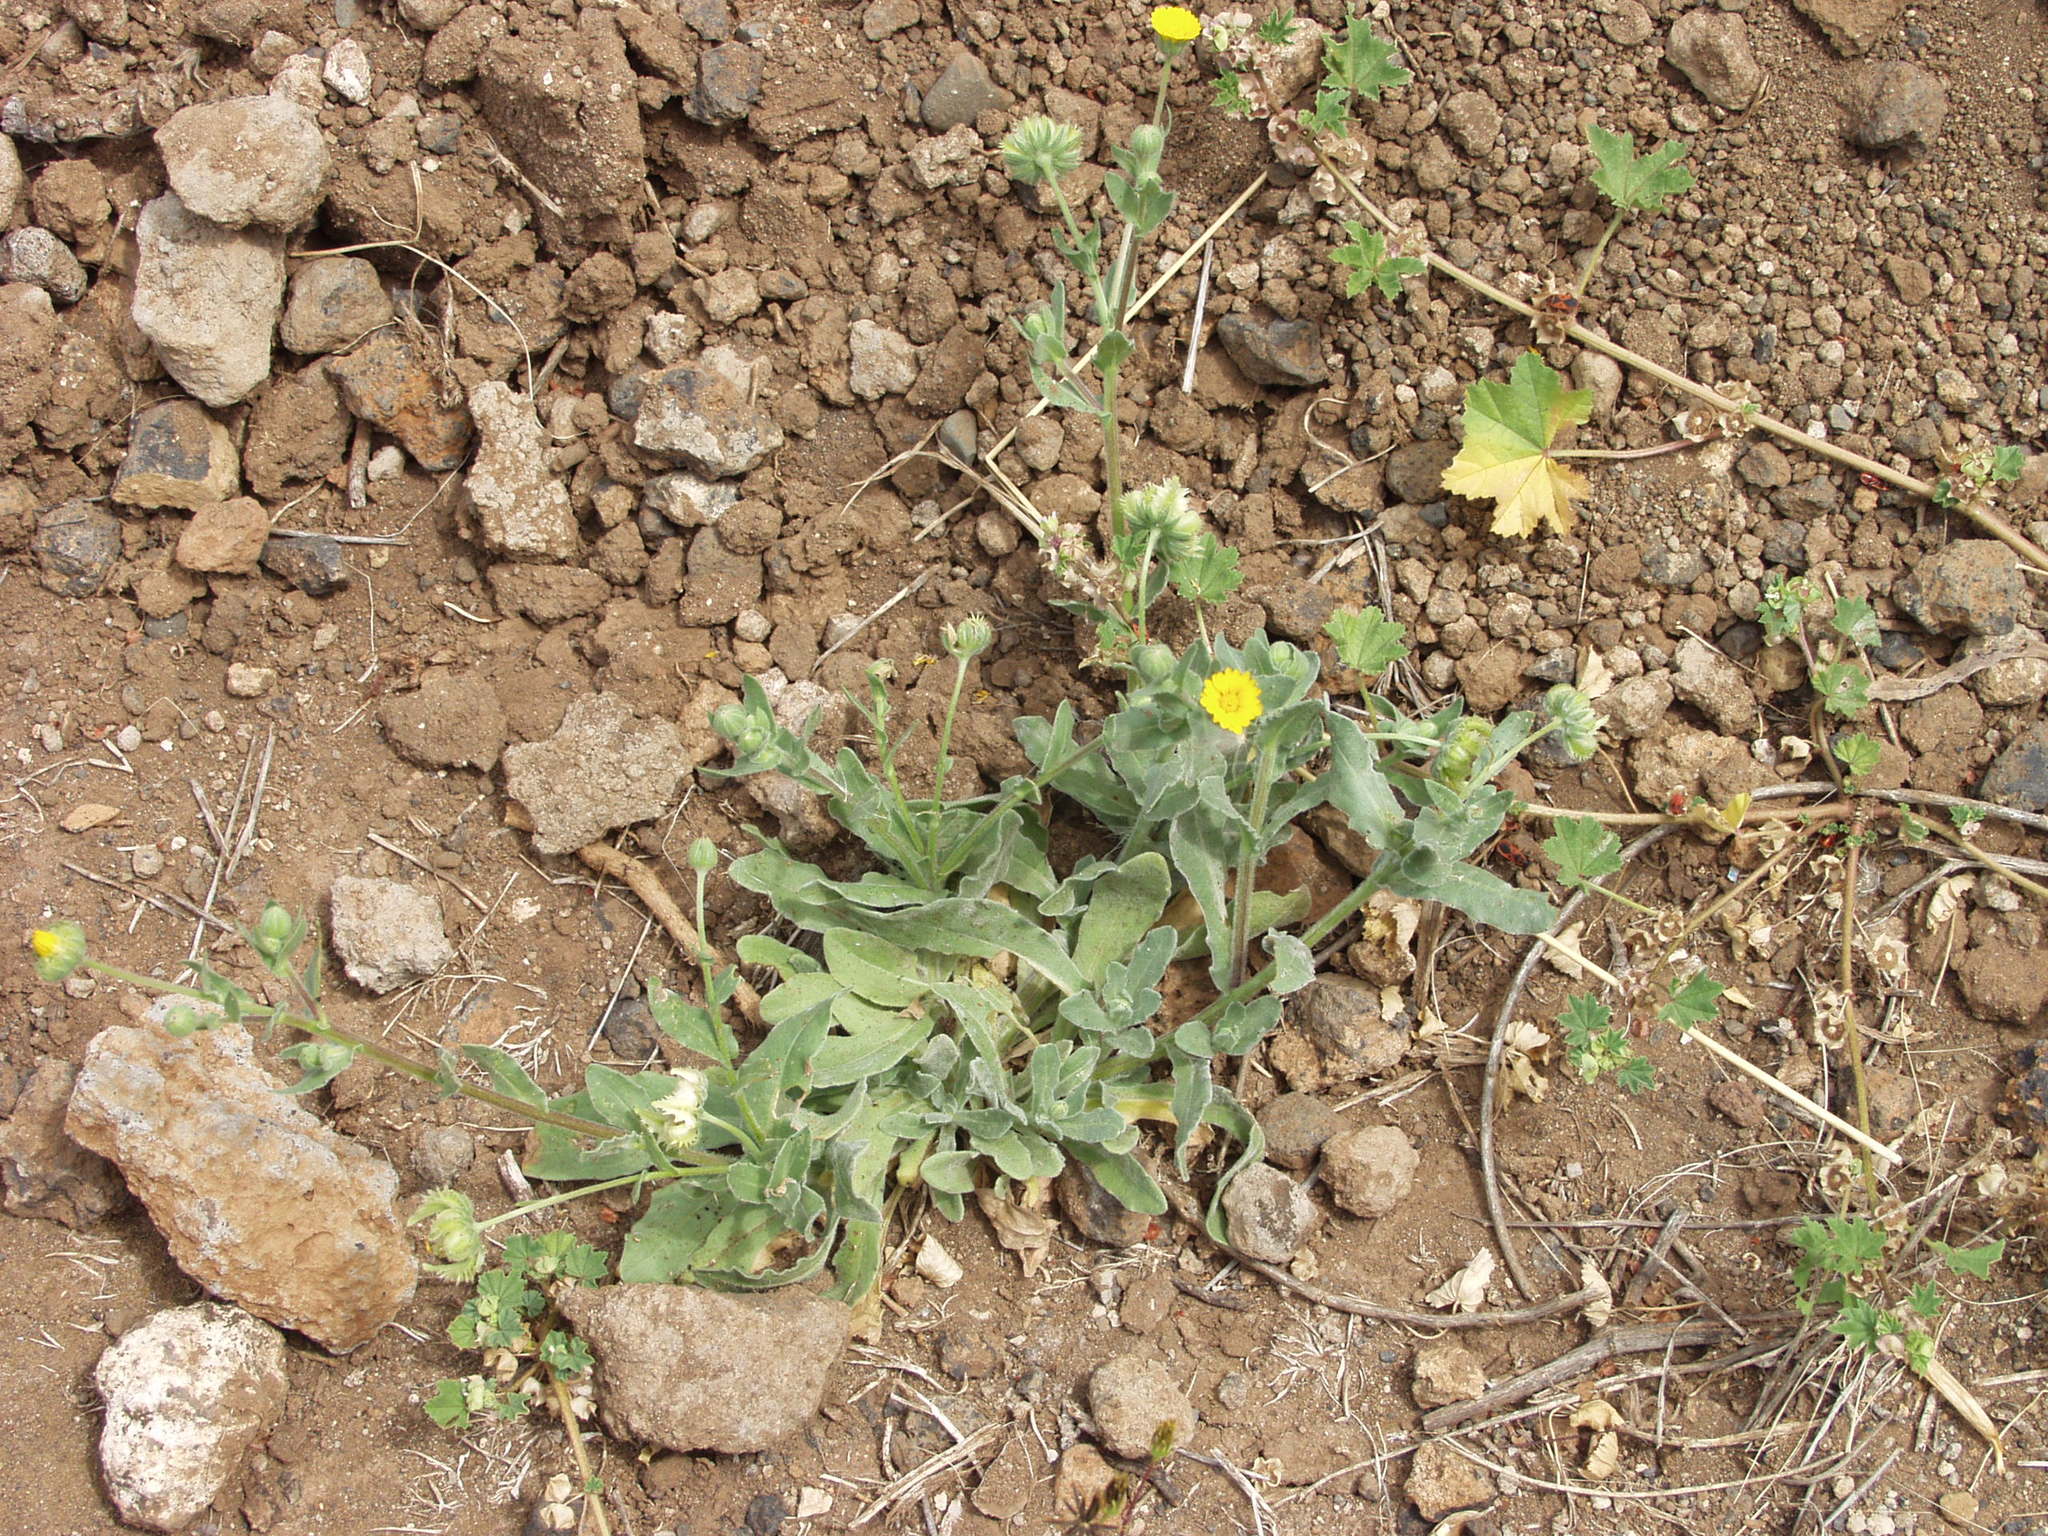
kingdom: Plantae
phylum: Tracheophyta
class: Magnoliopsida
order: Asterales
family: Asteraceae
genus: Calendula
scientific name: Calendula arvensis
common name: Field marigold
